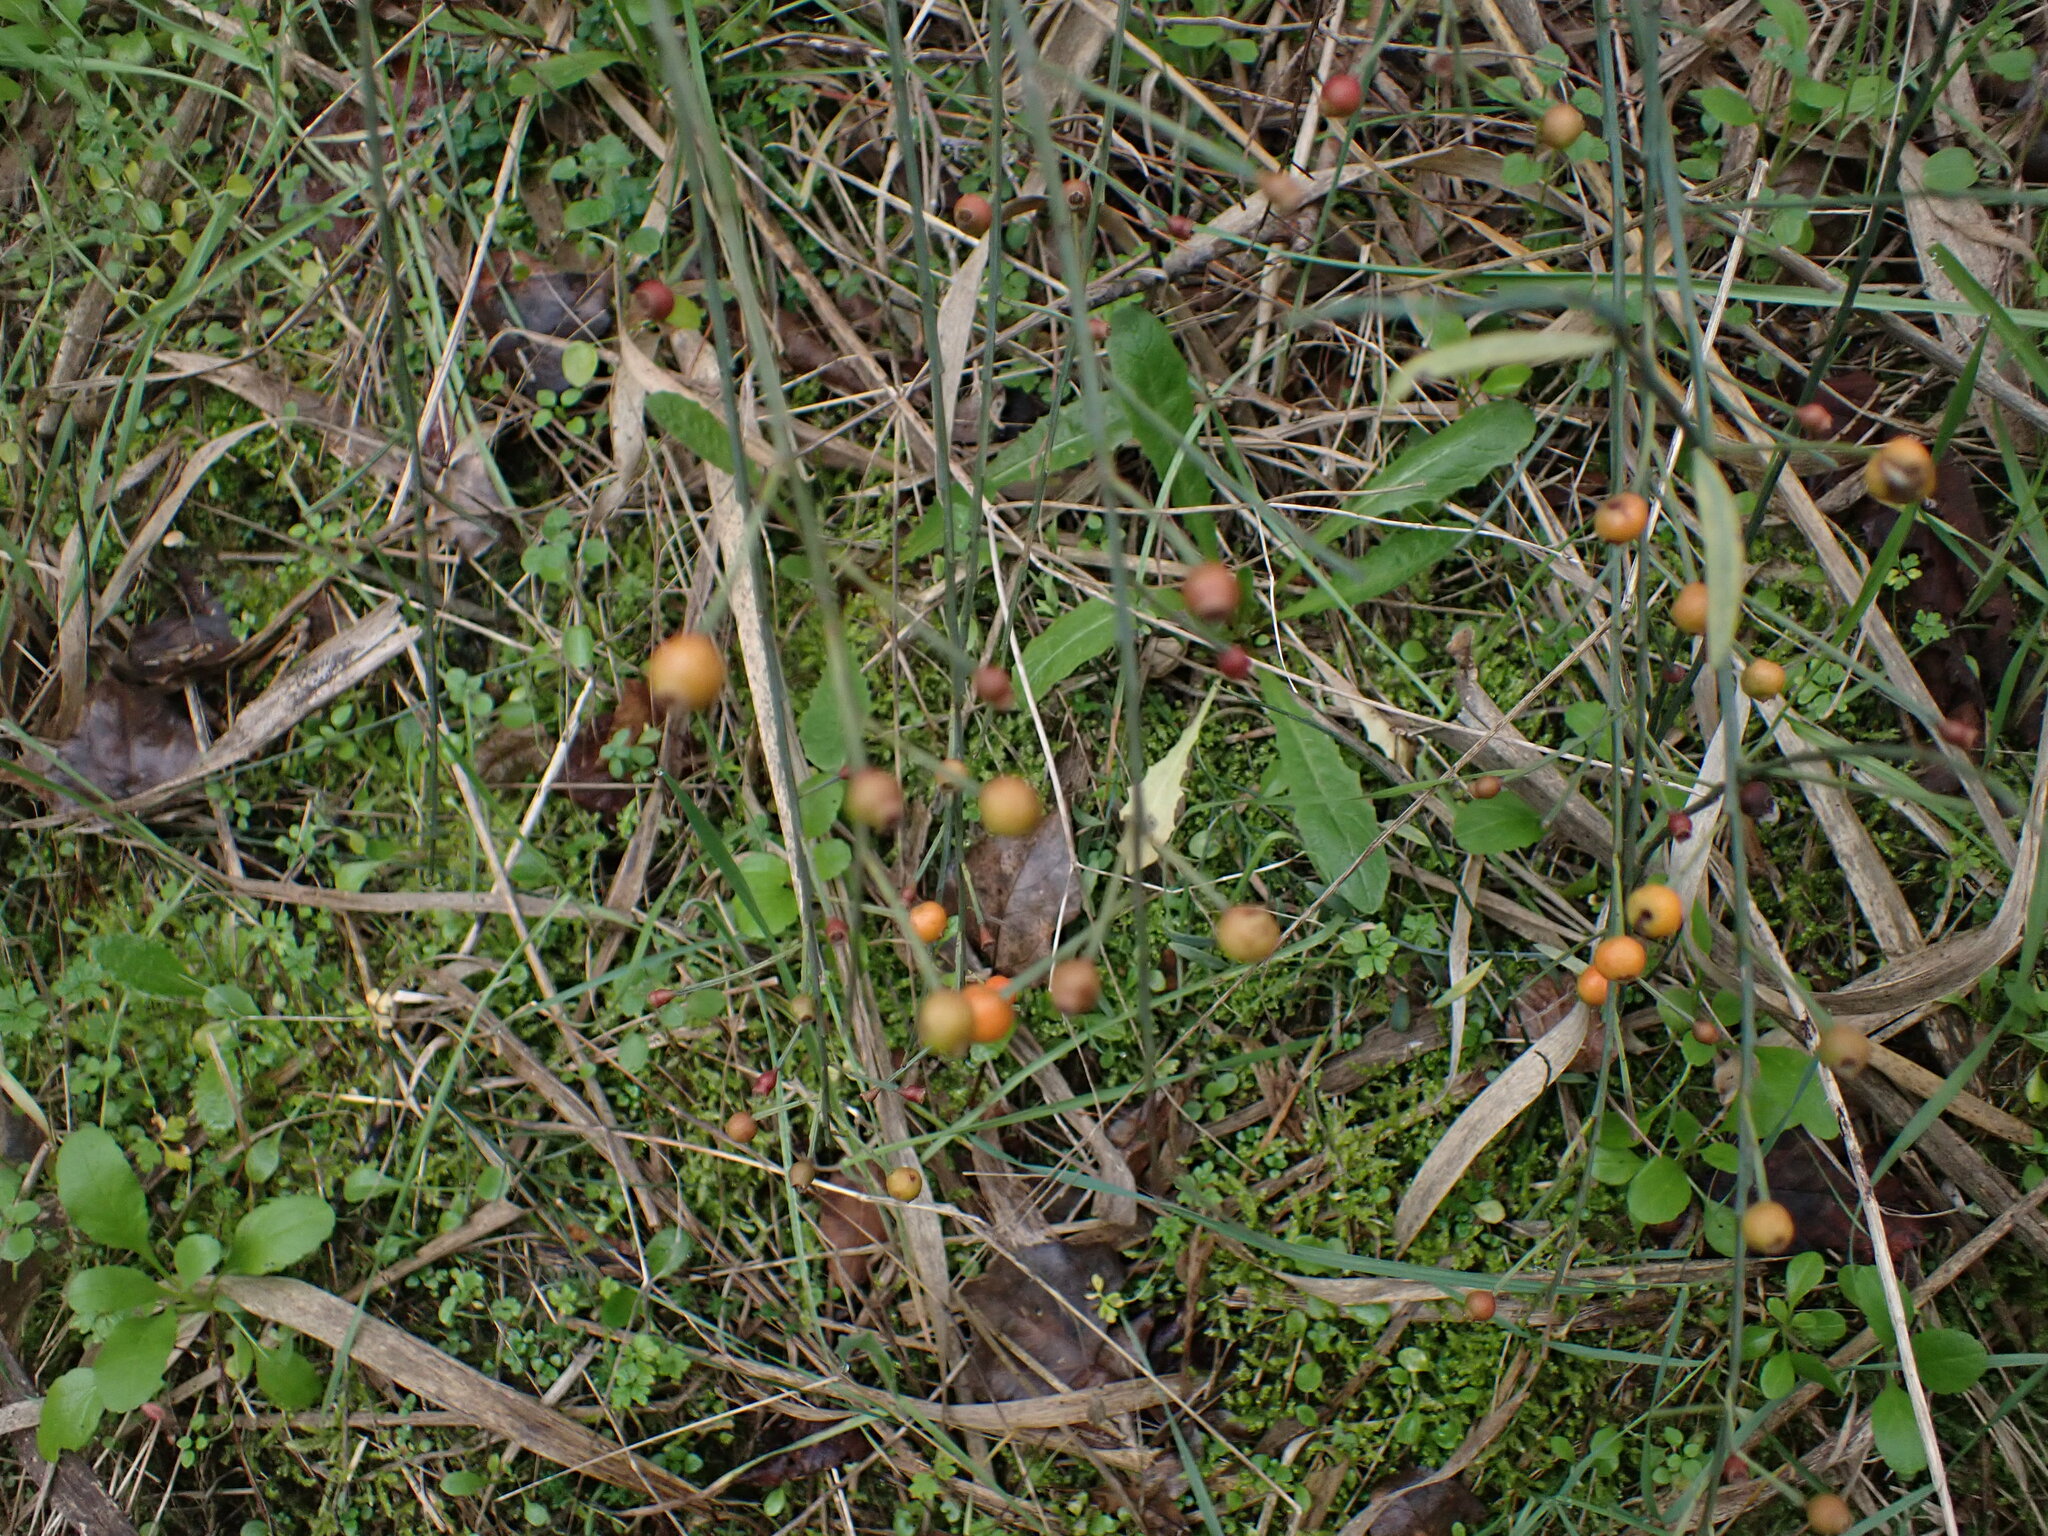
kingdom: Plantae
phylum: Tracheophyta
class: Magnoliopsida
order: Santalales
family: Santalaceae
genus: Osyris
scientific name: Osyris alba
